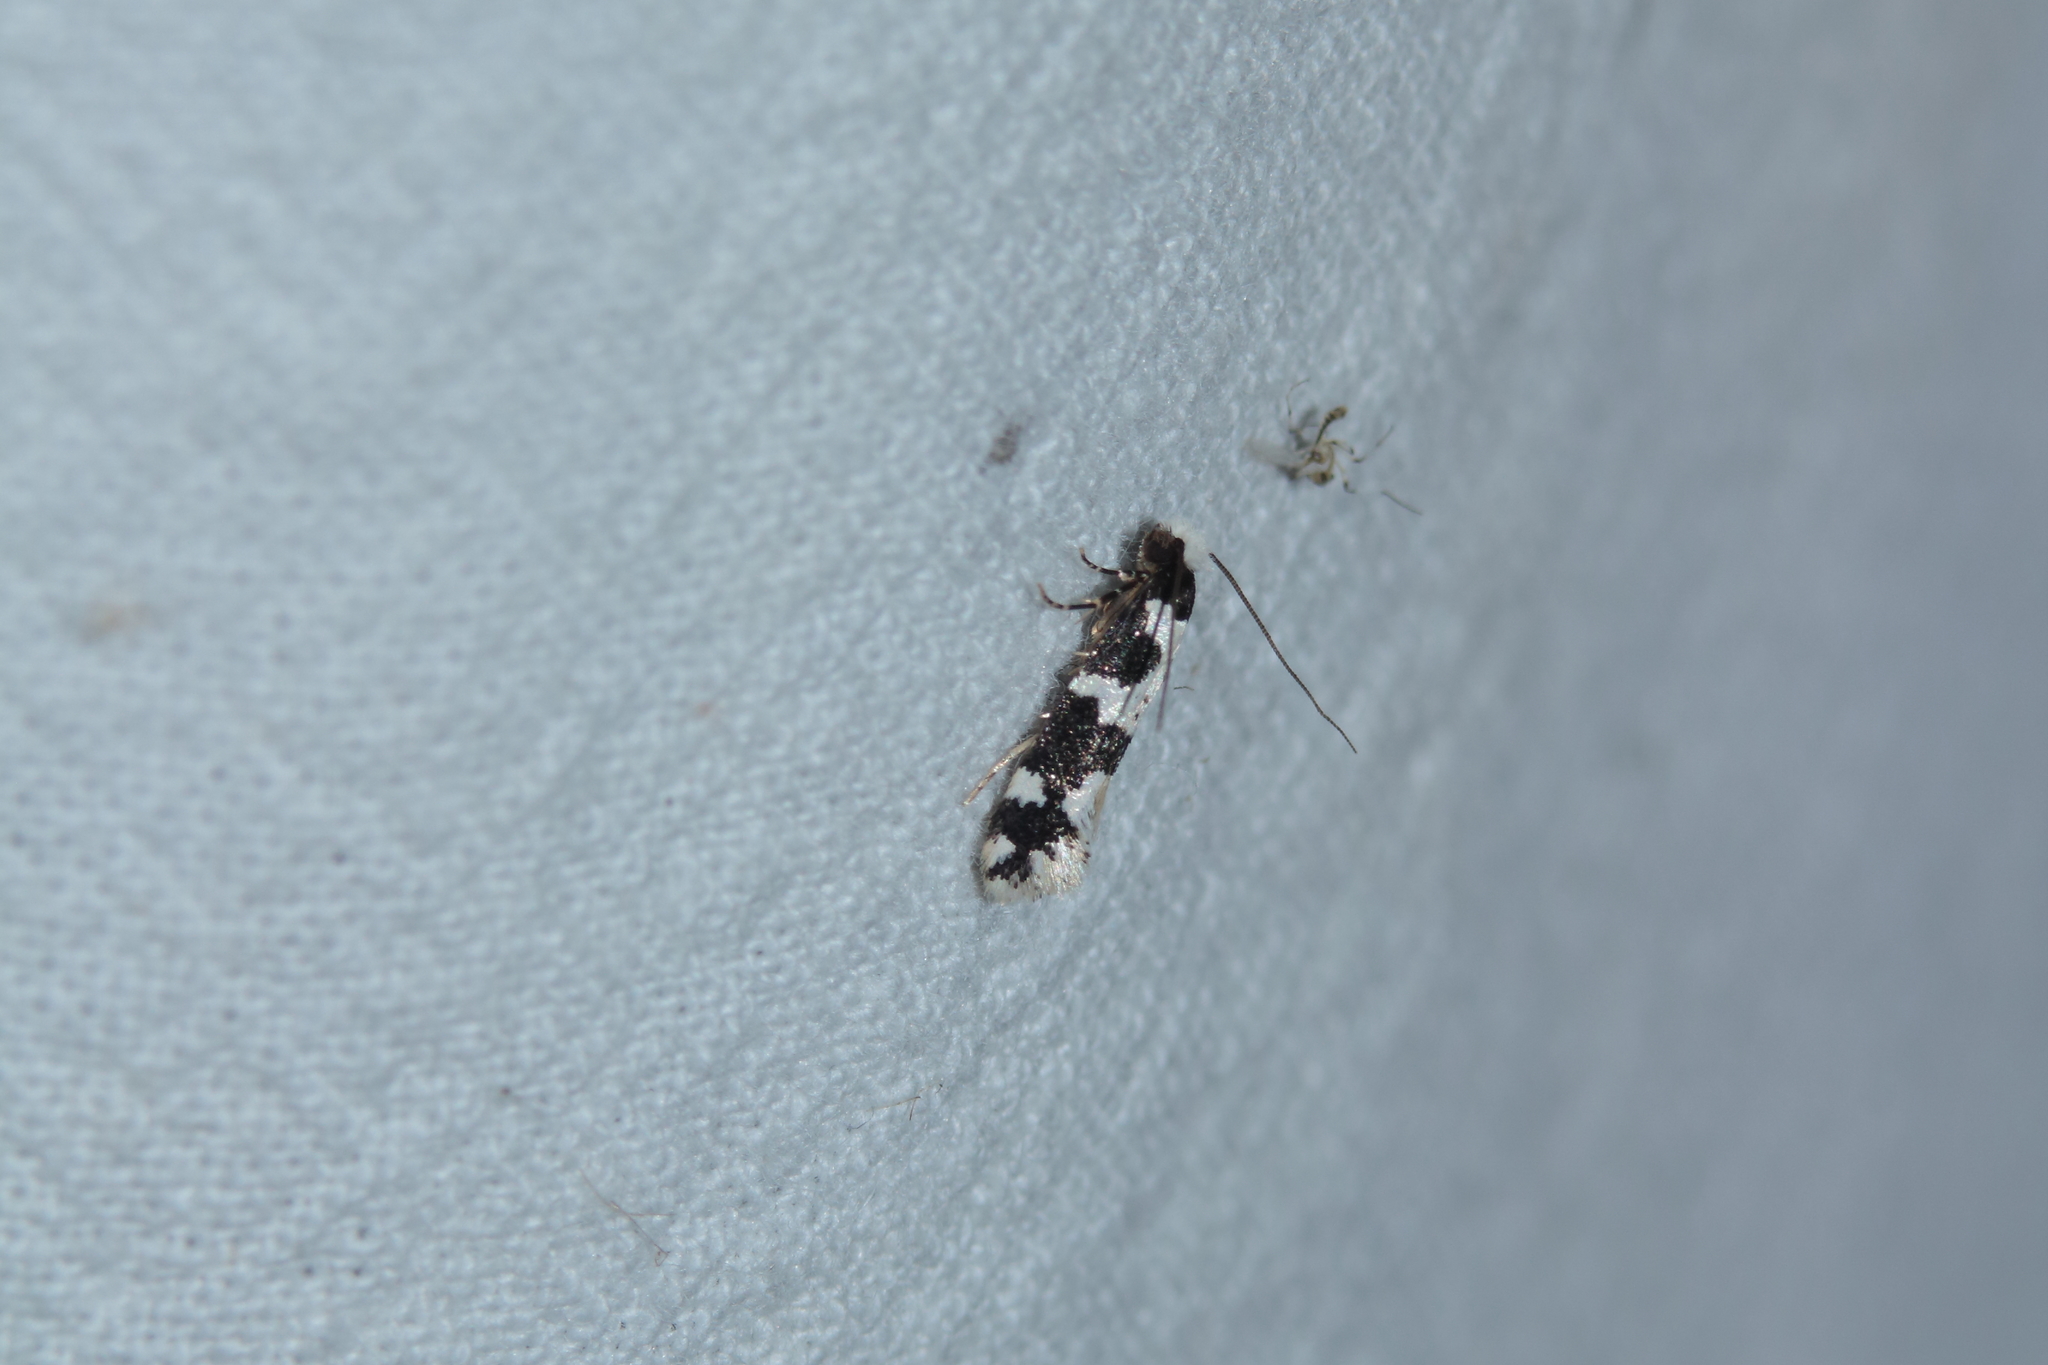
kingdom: Animalia
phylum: Arthropoda
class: Insecta
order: Lepidoptera
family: Tineidae
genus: Neurothaumasia
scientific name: Neurothaumasia ankerella
